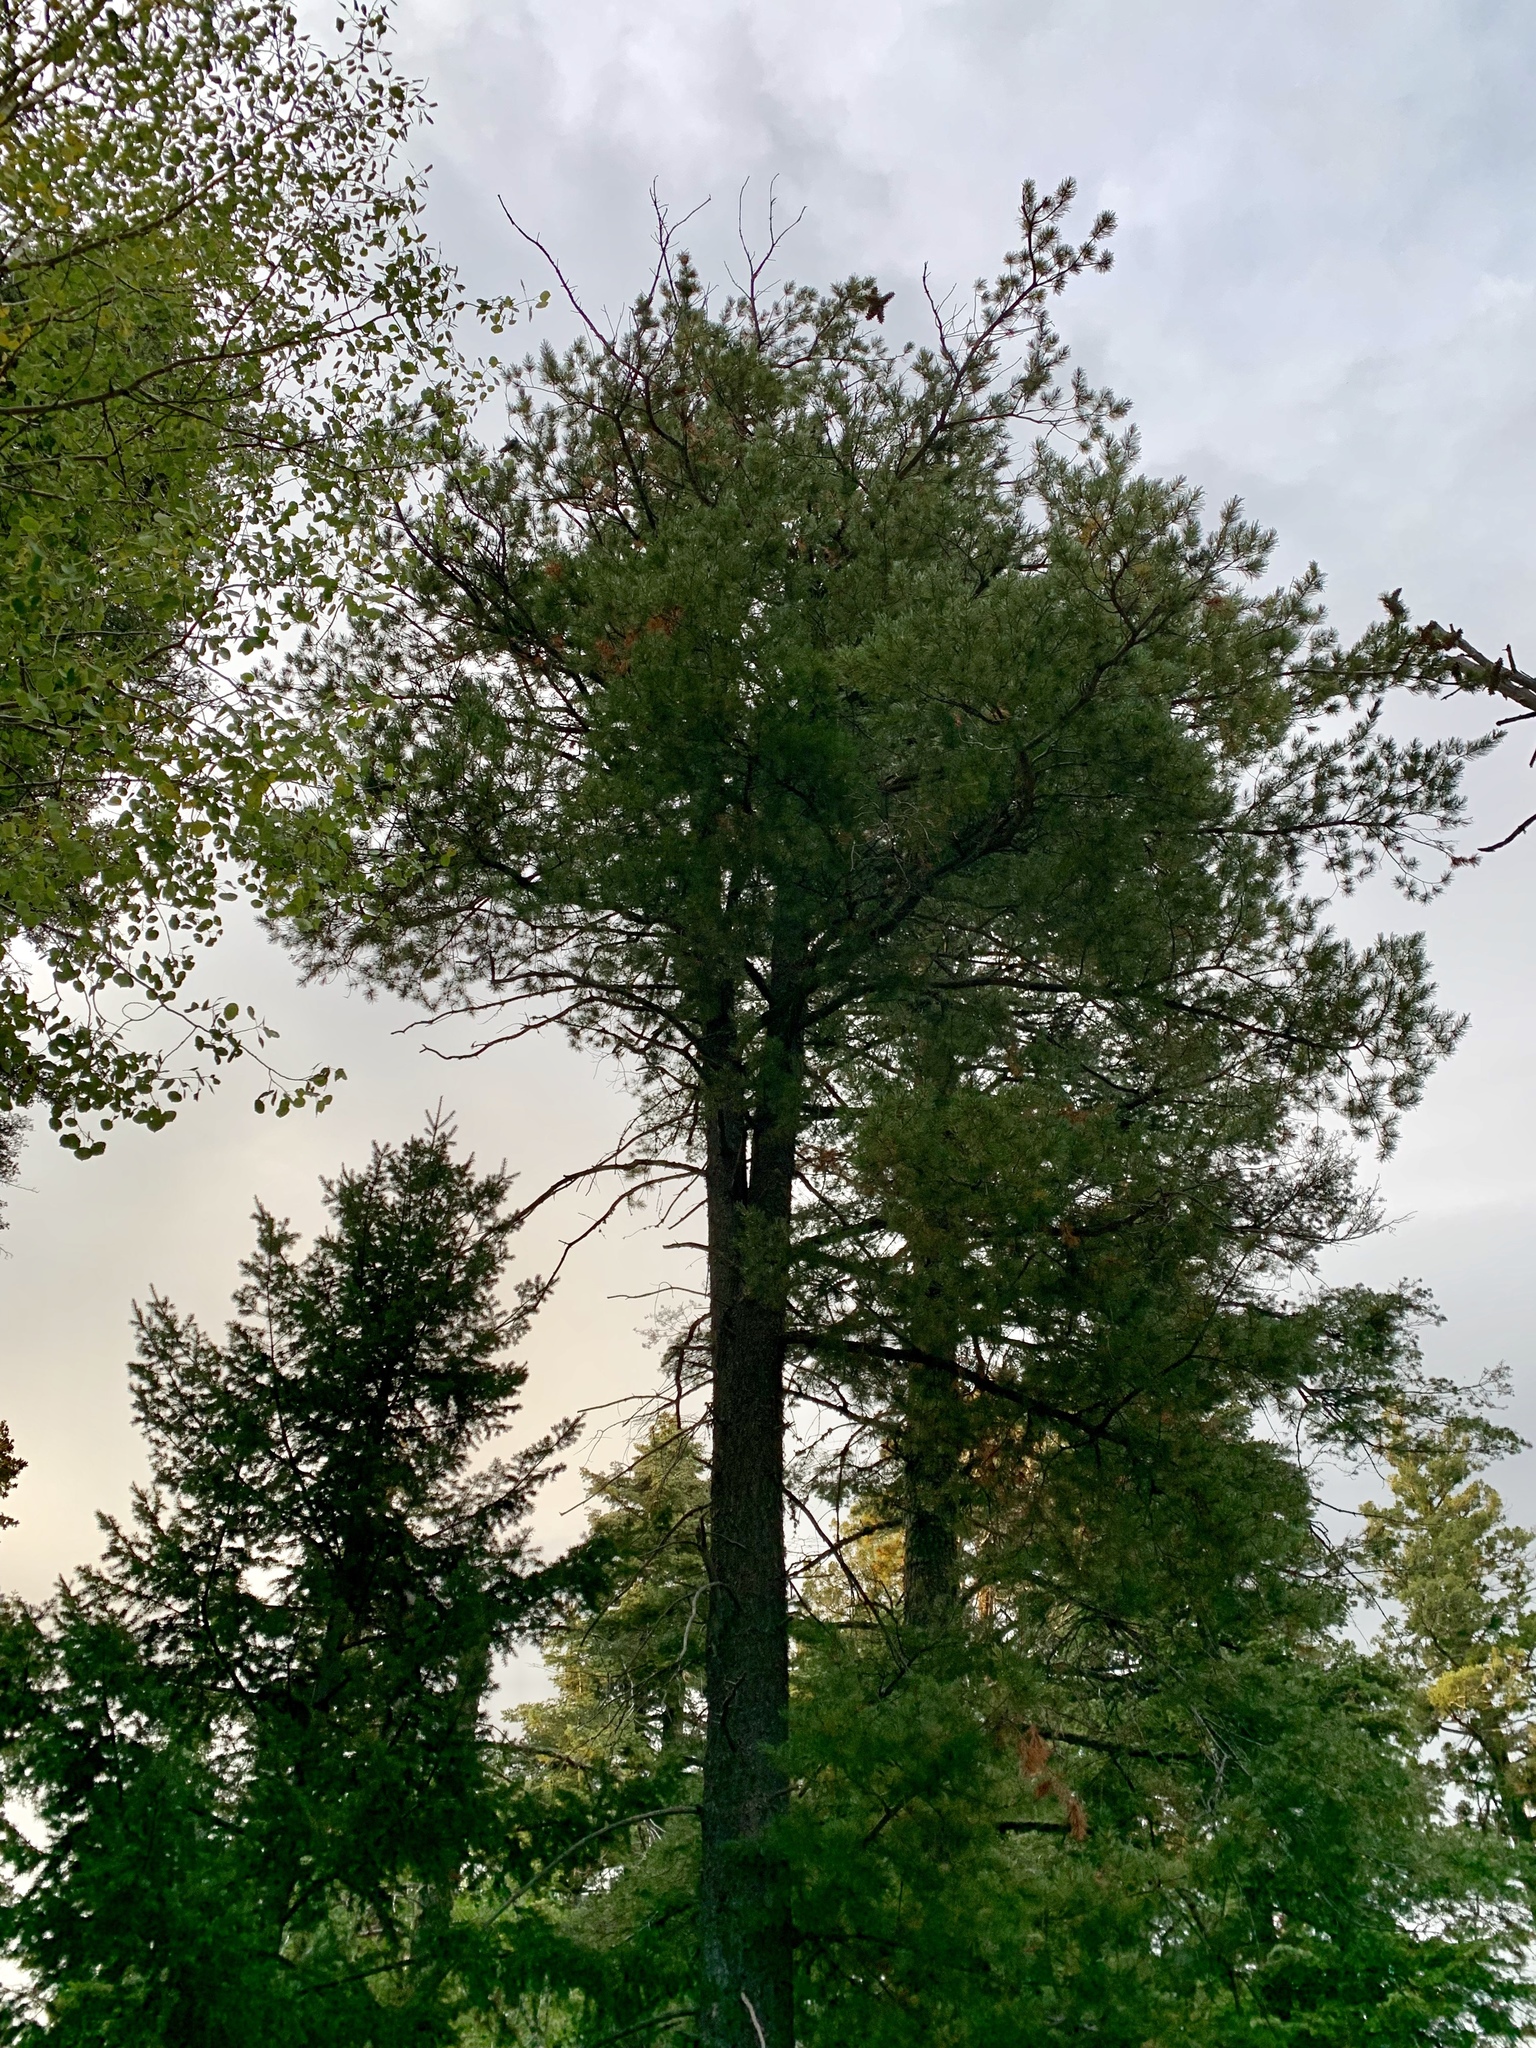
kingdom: Plantae
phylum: Tracheophyta
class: Pinopsida
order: Pinales
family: Pinaceae
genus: Pinus
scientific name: Pinus strobiformis
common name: Southwestern white pine
